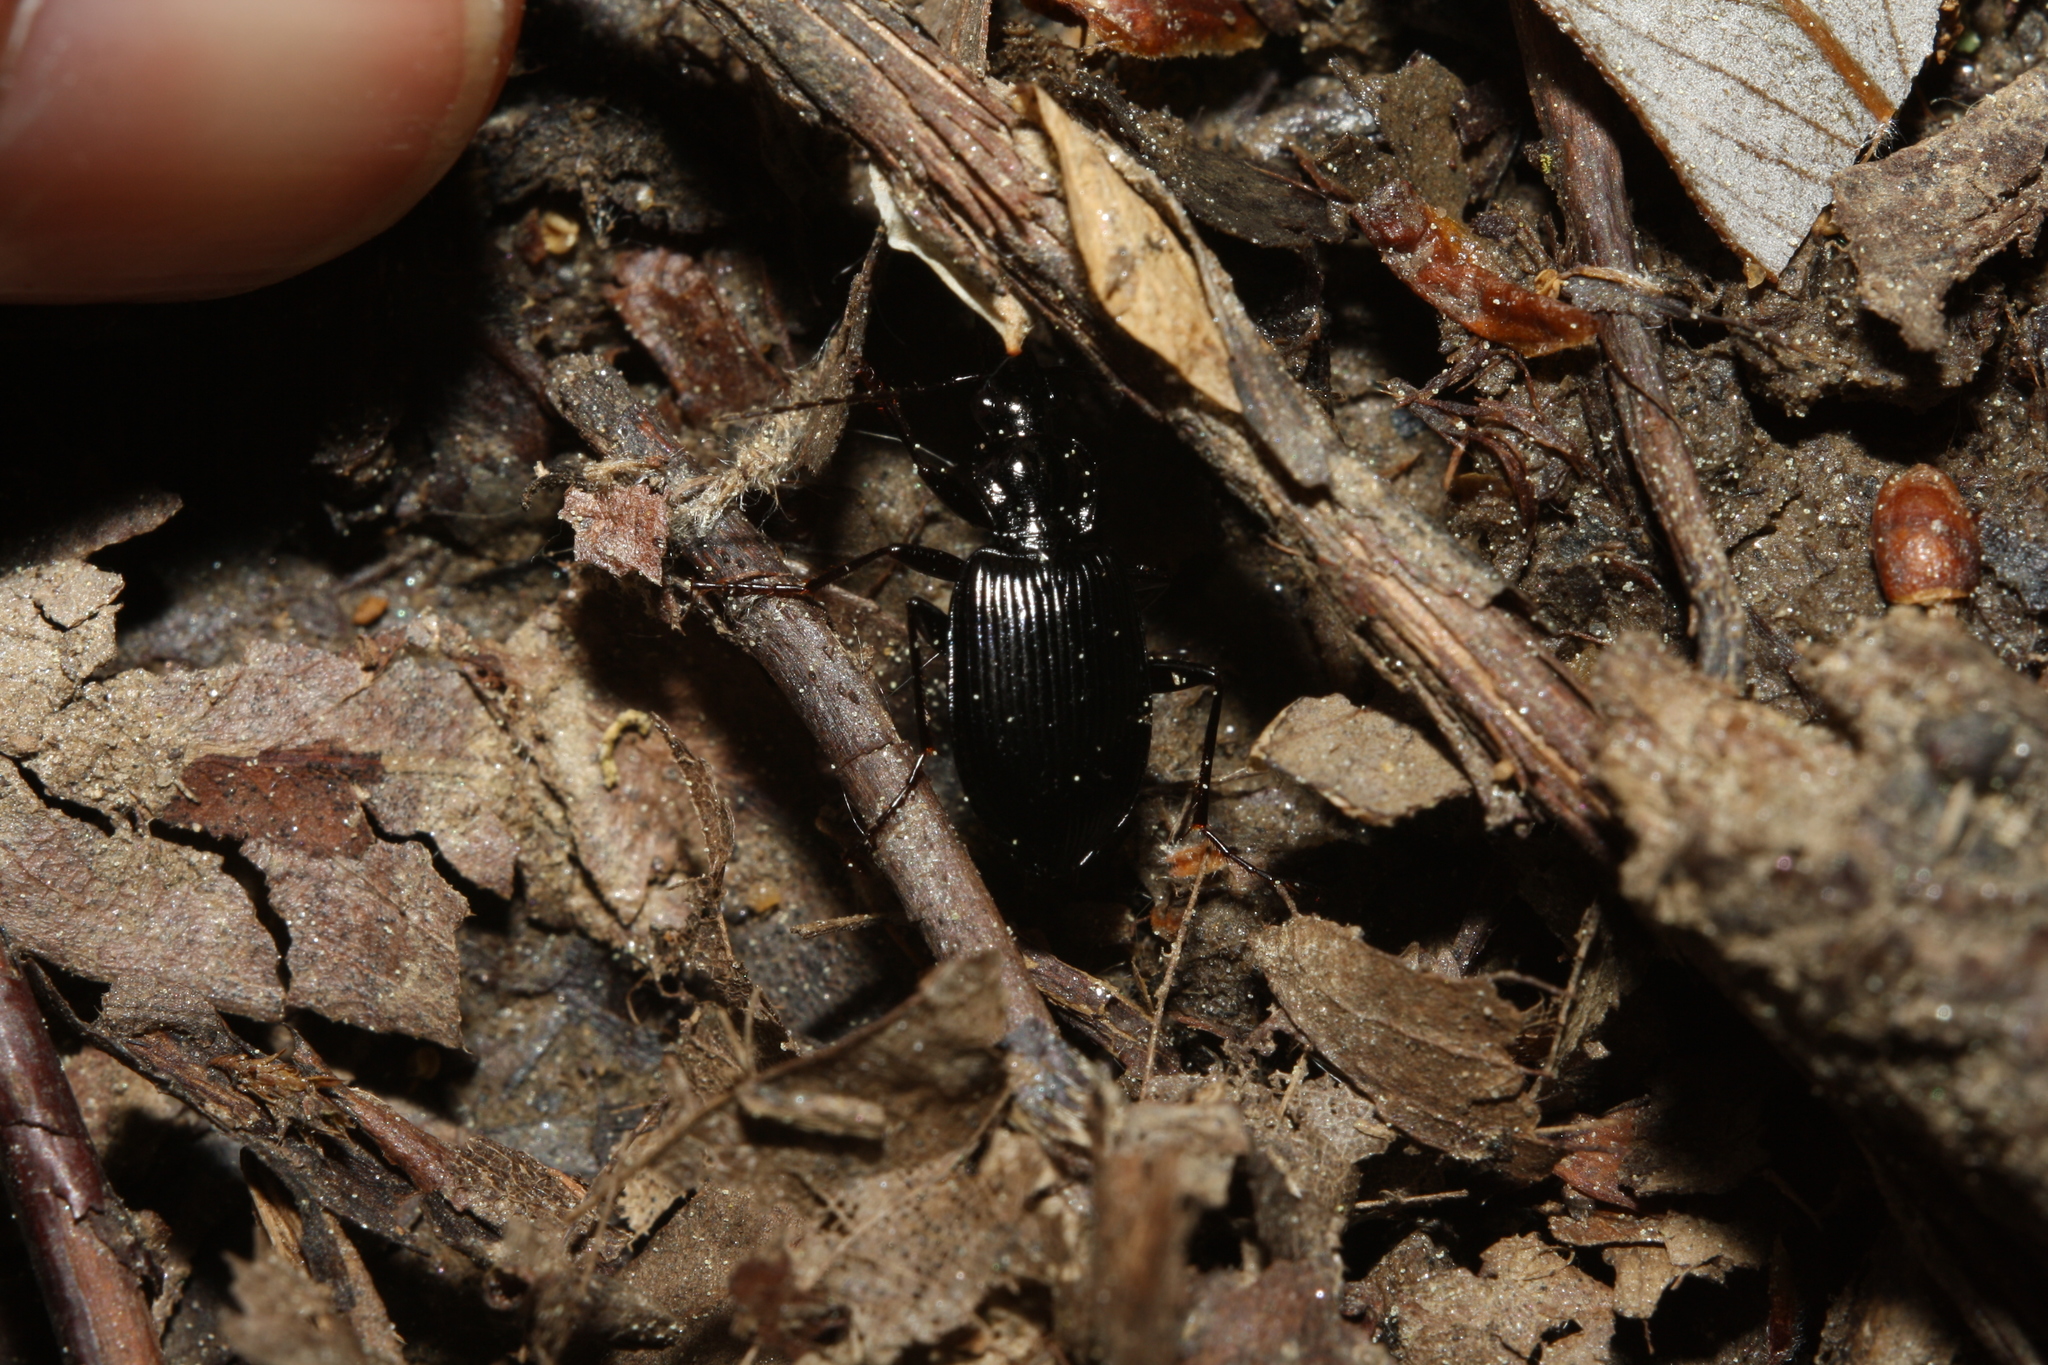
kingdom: Animalia
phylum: Arthropoda
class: Insecta
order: Coleoptera
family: Carabidae
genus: Platynus
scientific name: Platynus assimilis
